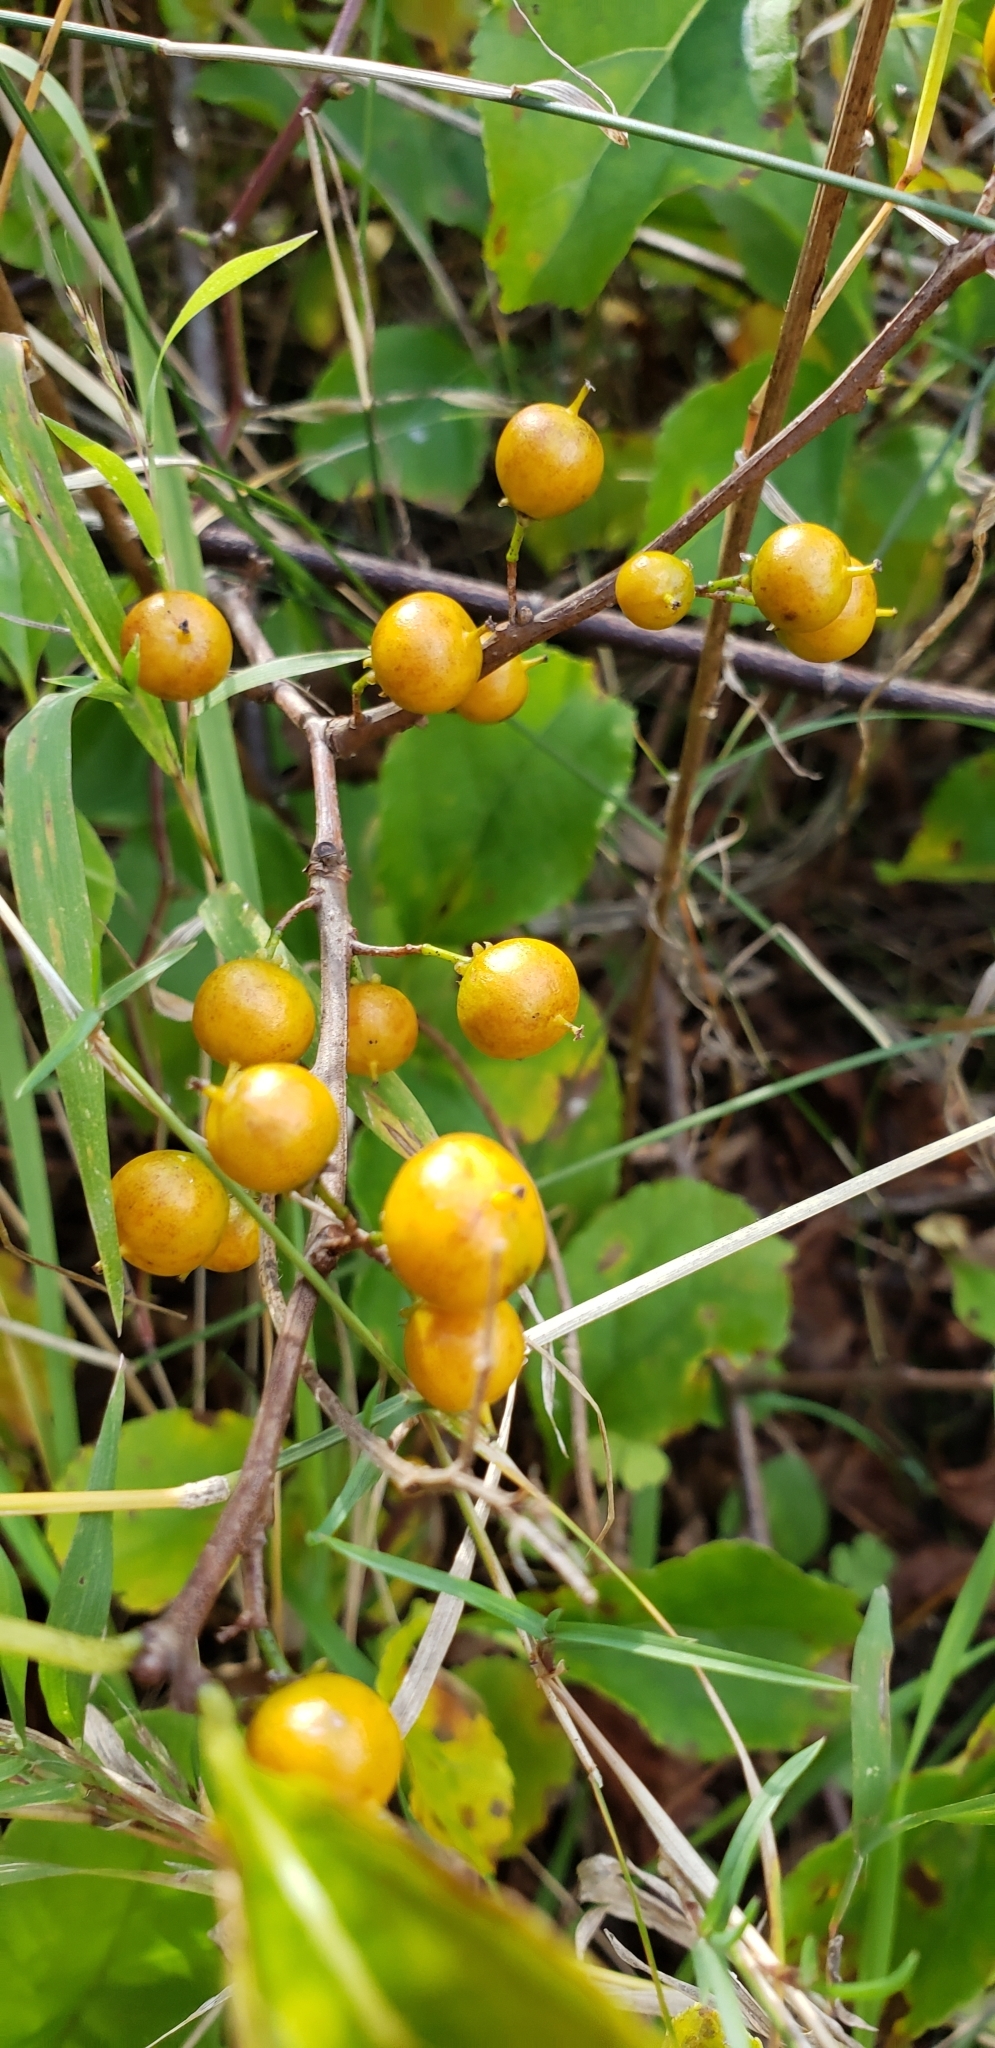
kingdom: Plantae
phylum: Tracheophyta
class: Magnoliopsida
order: Celastrales
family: Celastraceae
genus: Celastrus
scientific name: Celastrus orbiculatus
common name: Oriental bittersweet
